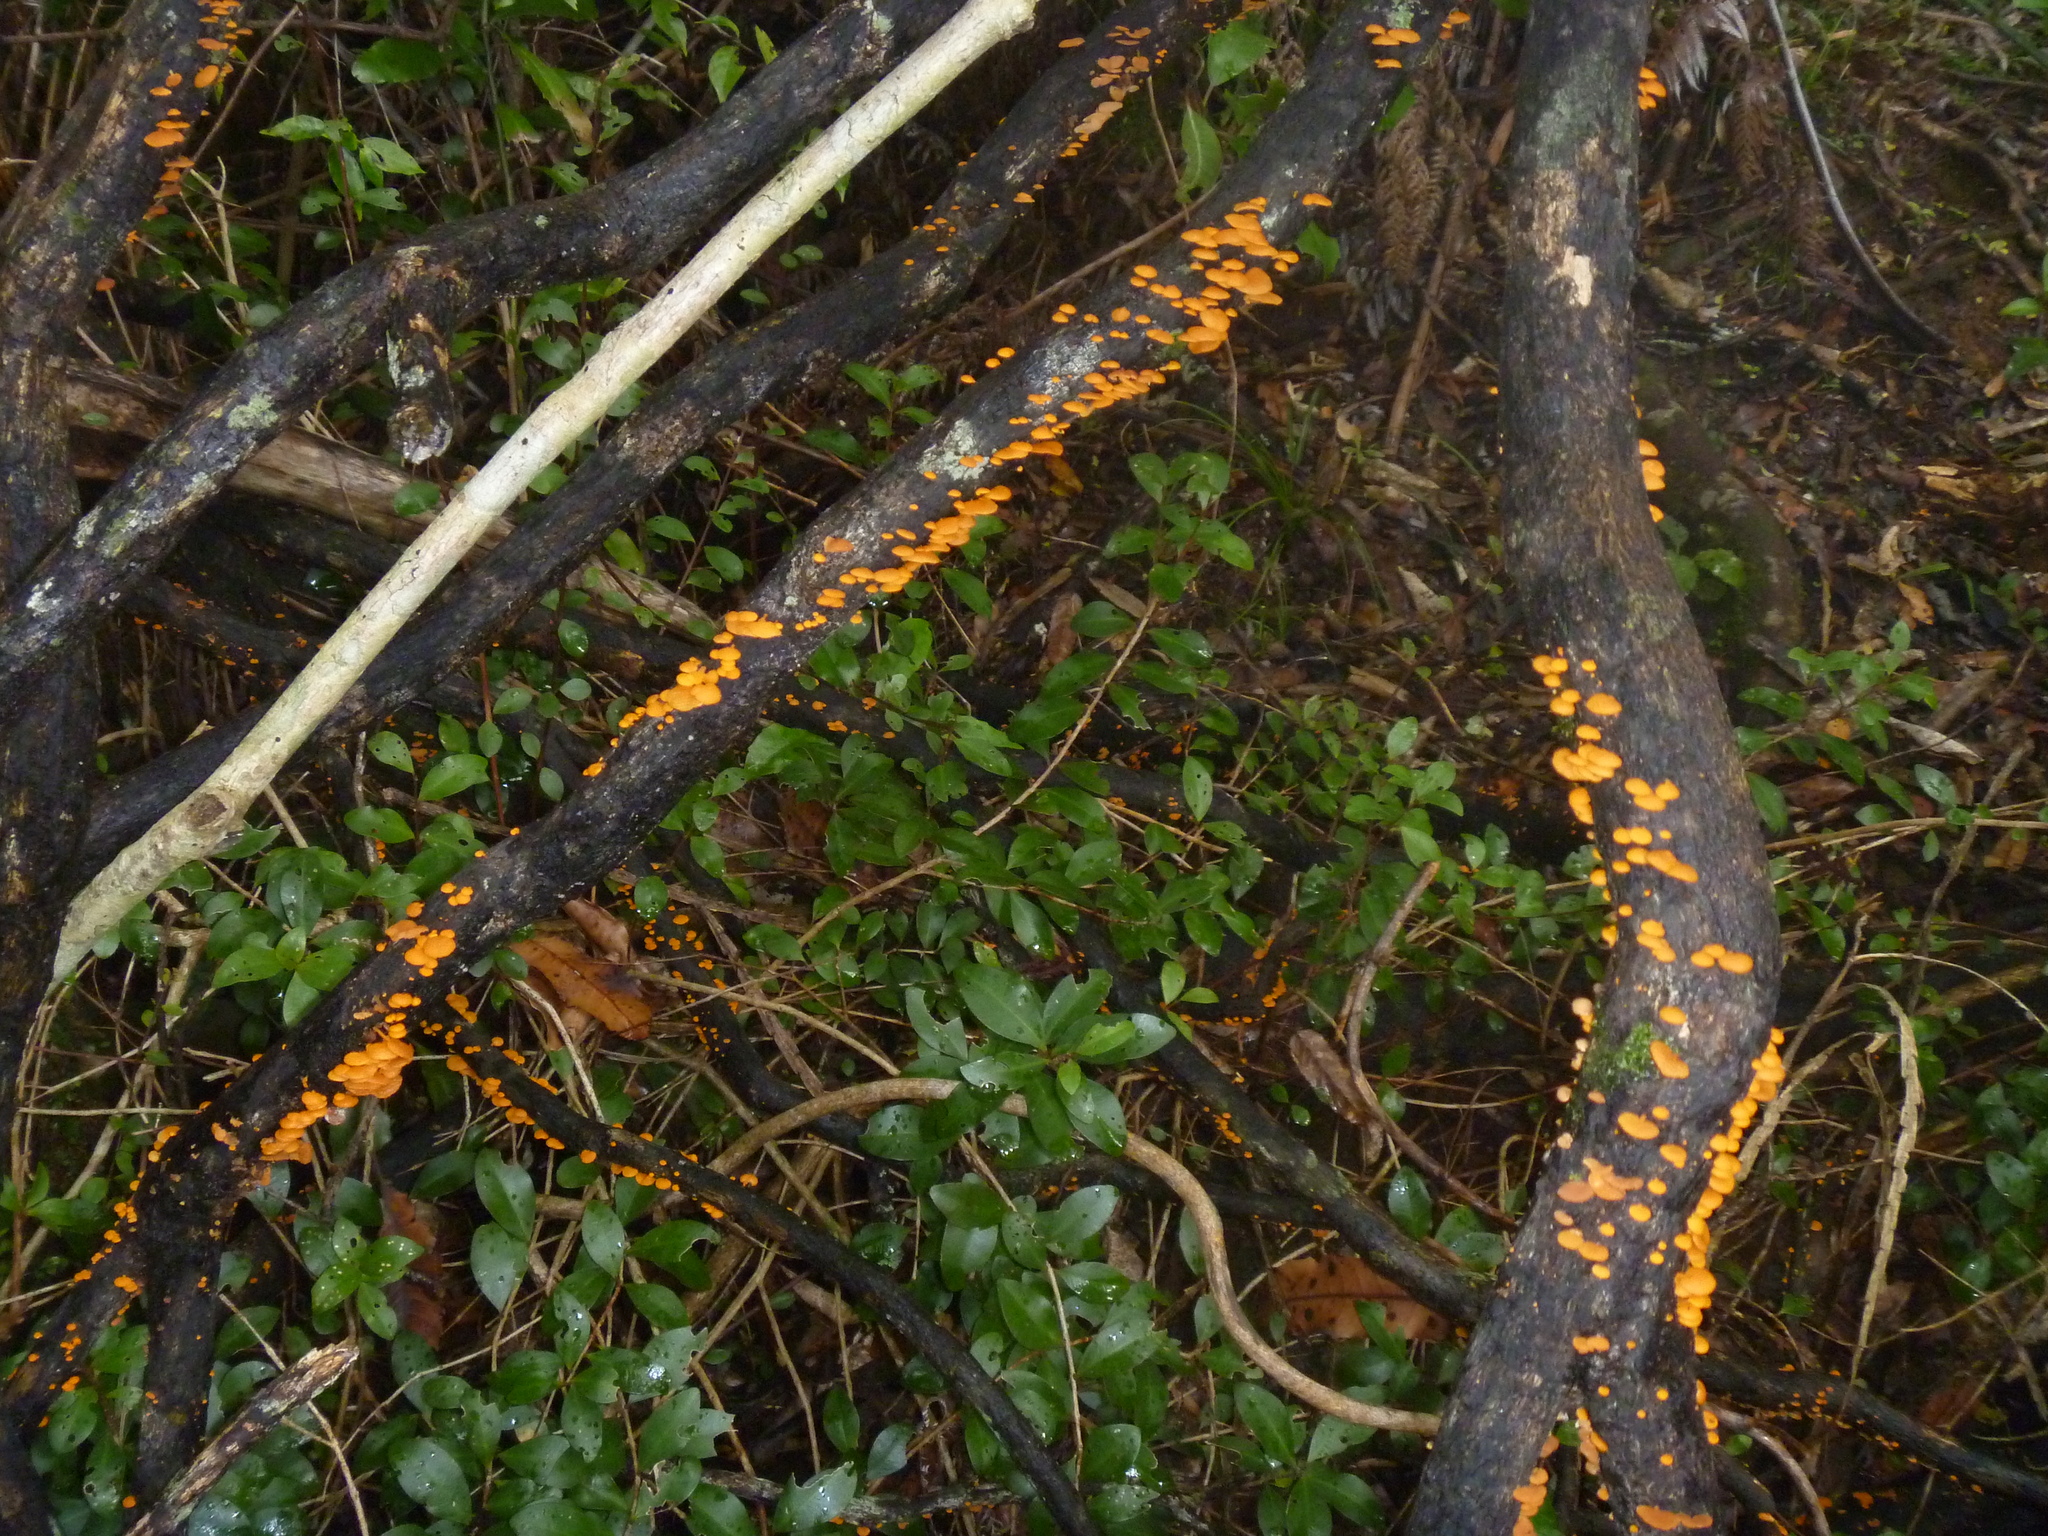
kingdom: Fungi
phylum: Basidiomycota
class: Agaricomycetes
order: Agaricales
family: Mycenaceae
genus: Favolaschia
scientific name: Favolaschia claudopus
